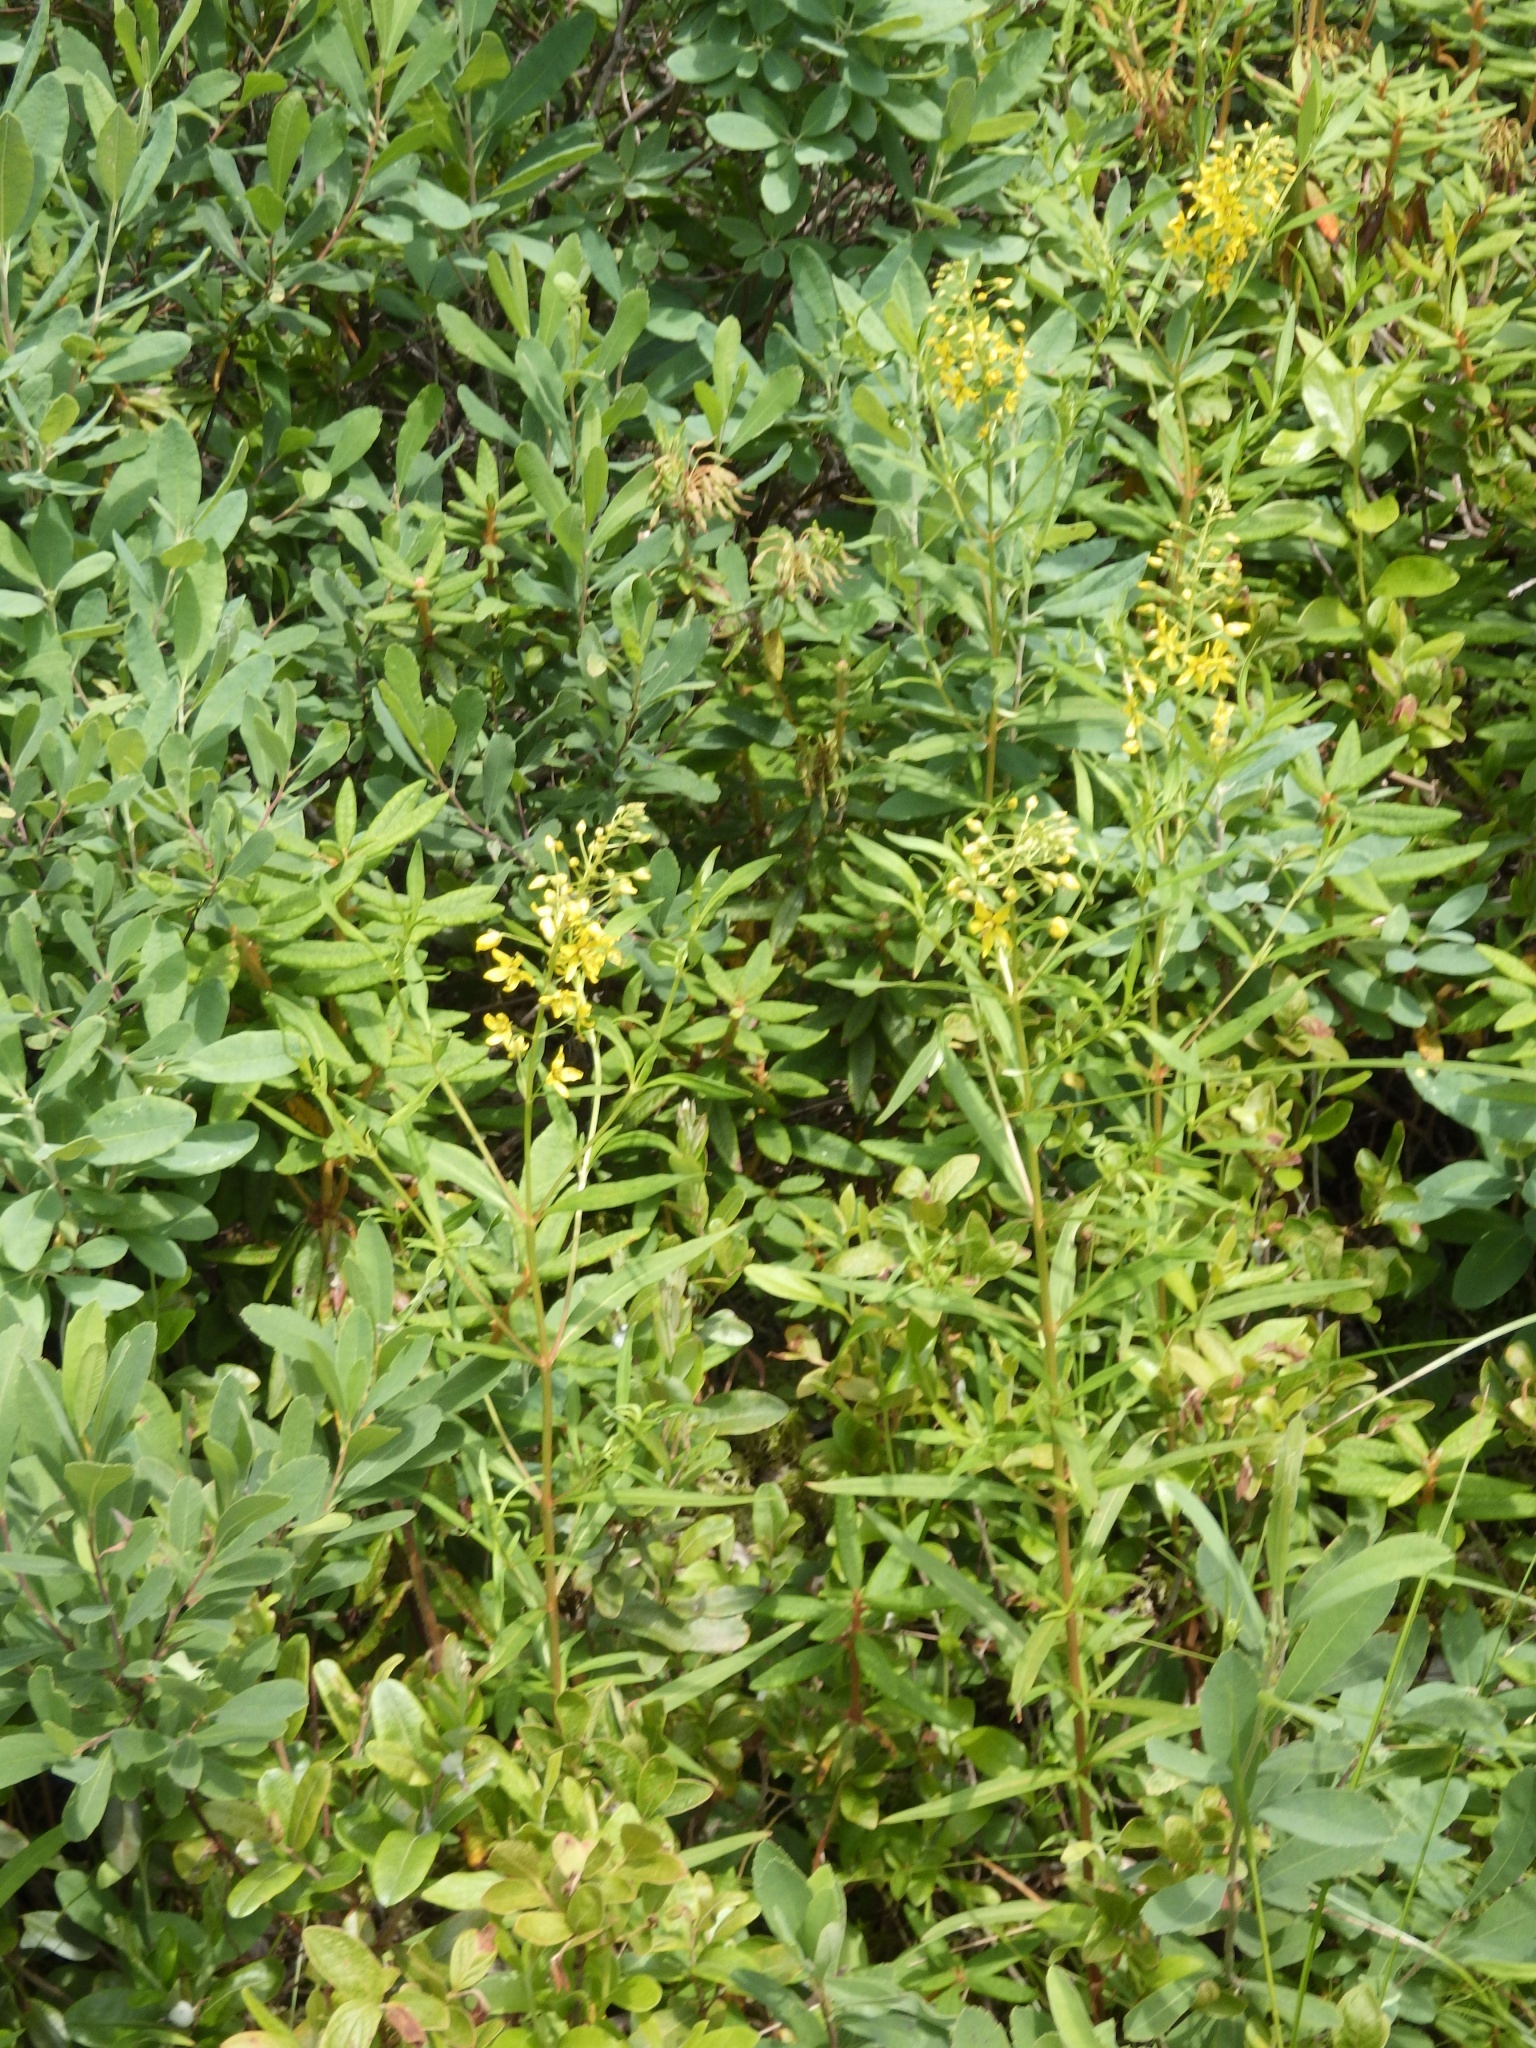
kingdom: Plantae
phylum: Tracheophyta
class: Magnoliopsida
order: Ericales
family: Primulaceae
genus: Lysimachia
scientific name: Lysimachia terrestris
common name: Lake loosestrife
